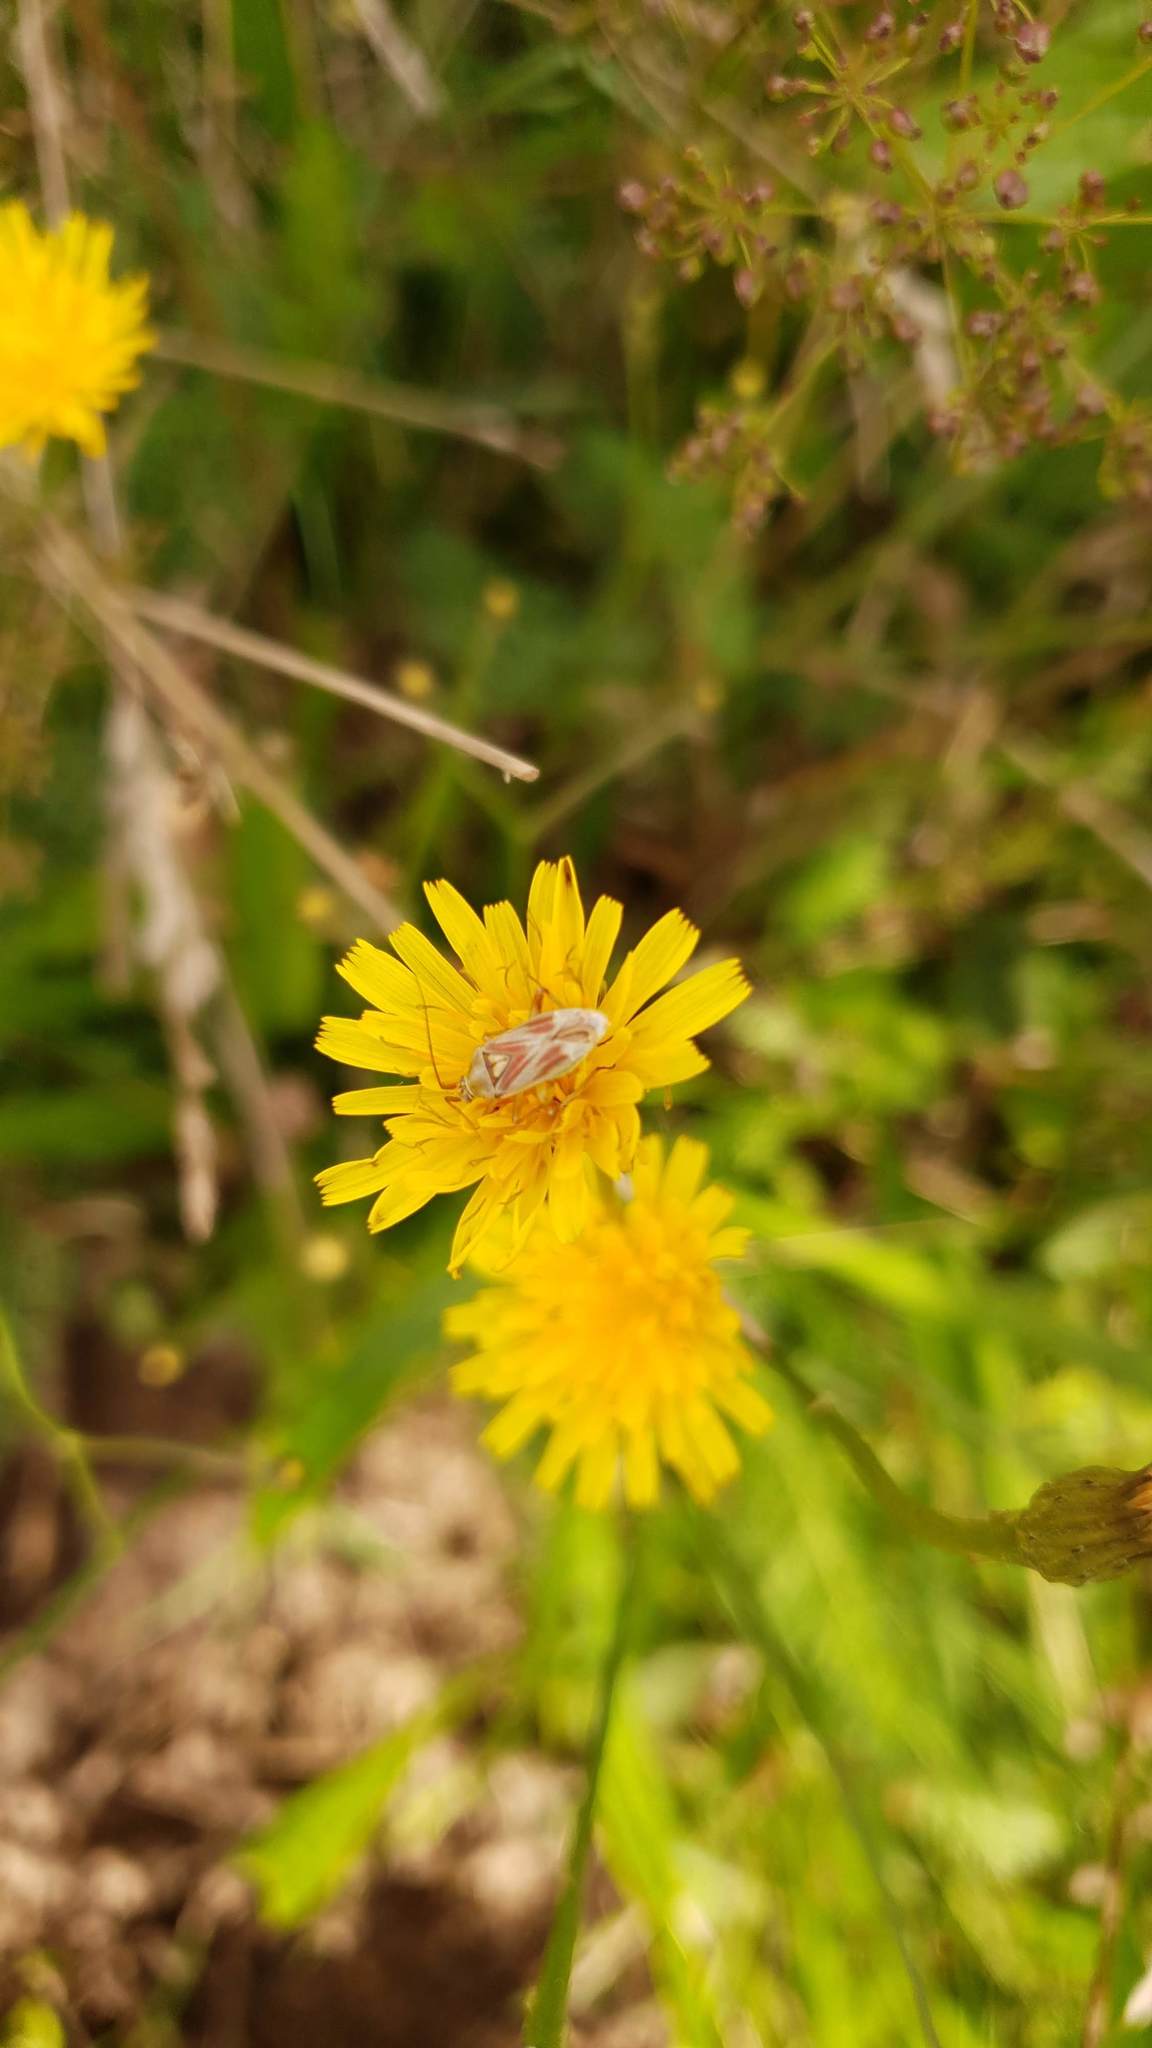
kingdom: Animalia
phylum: Arthropoda
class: Insecta
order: Hemiptera
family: Miridae
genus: Calocoris
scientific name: Calocoris roseomaculatus
